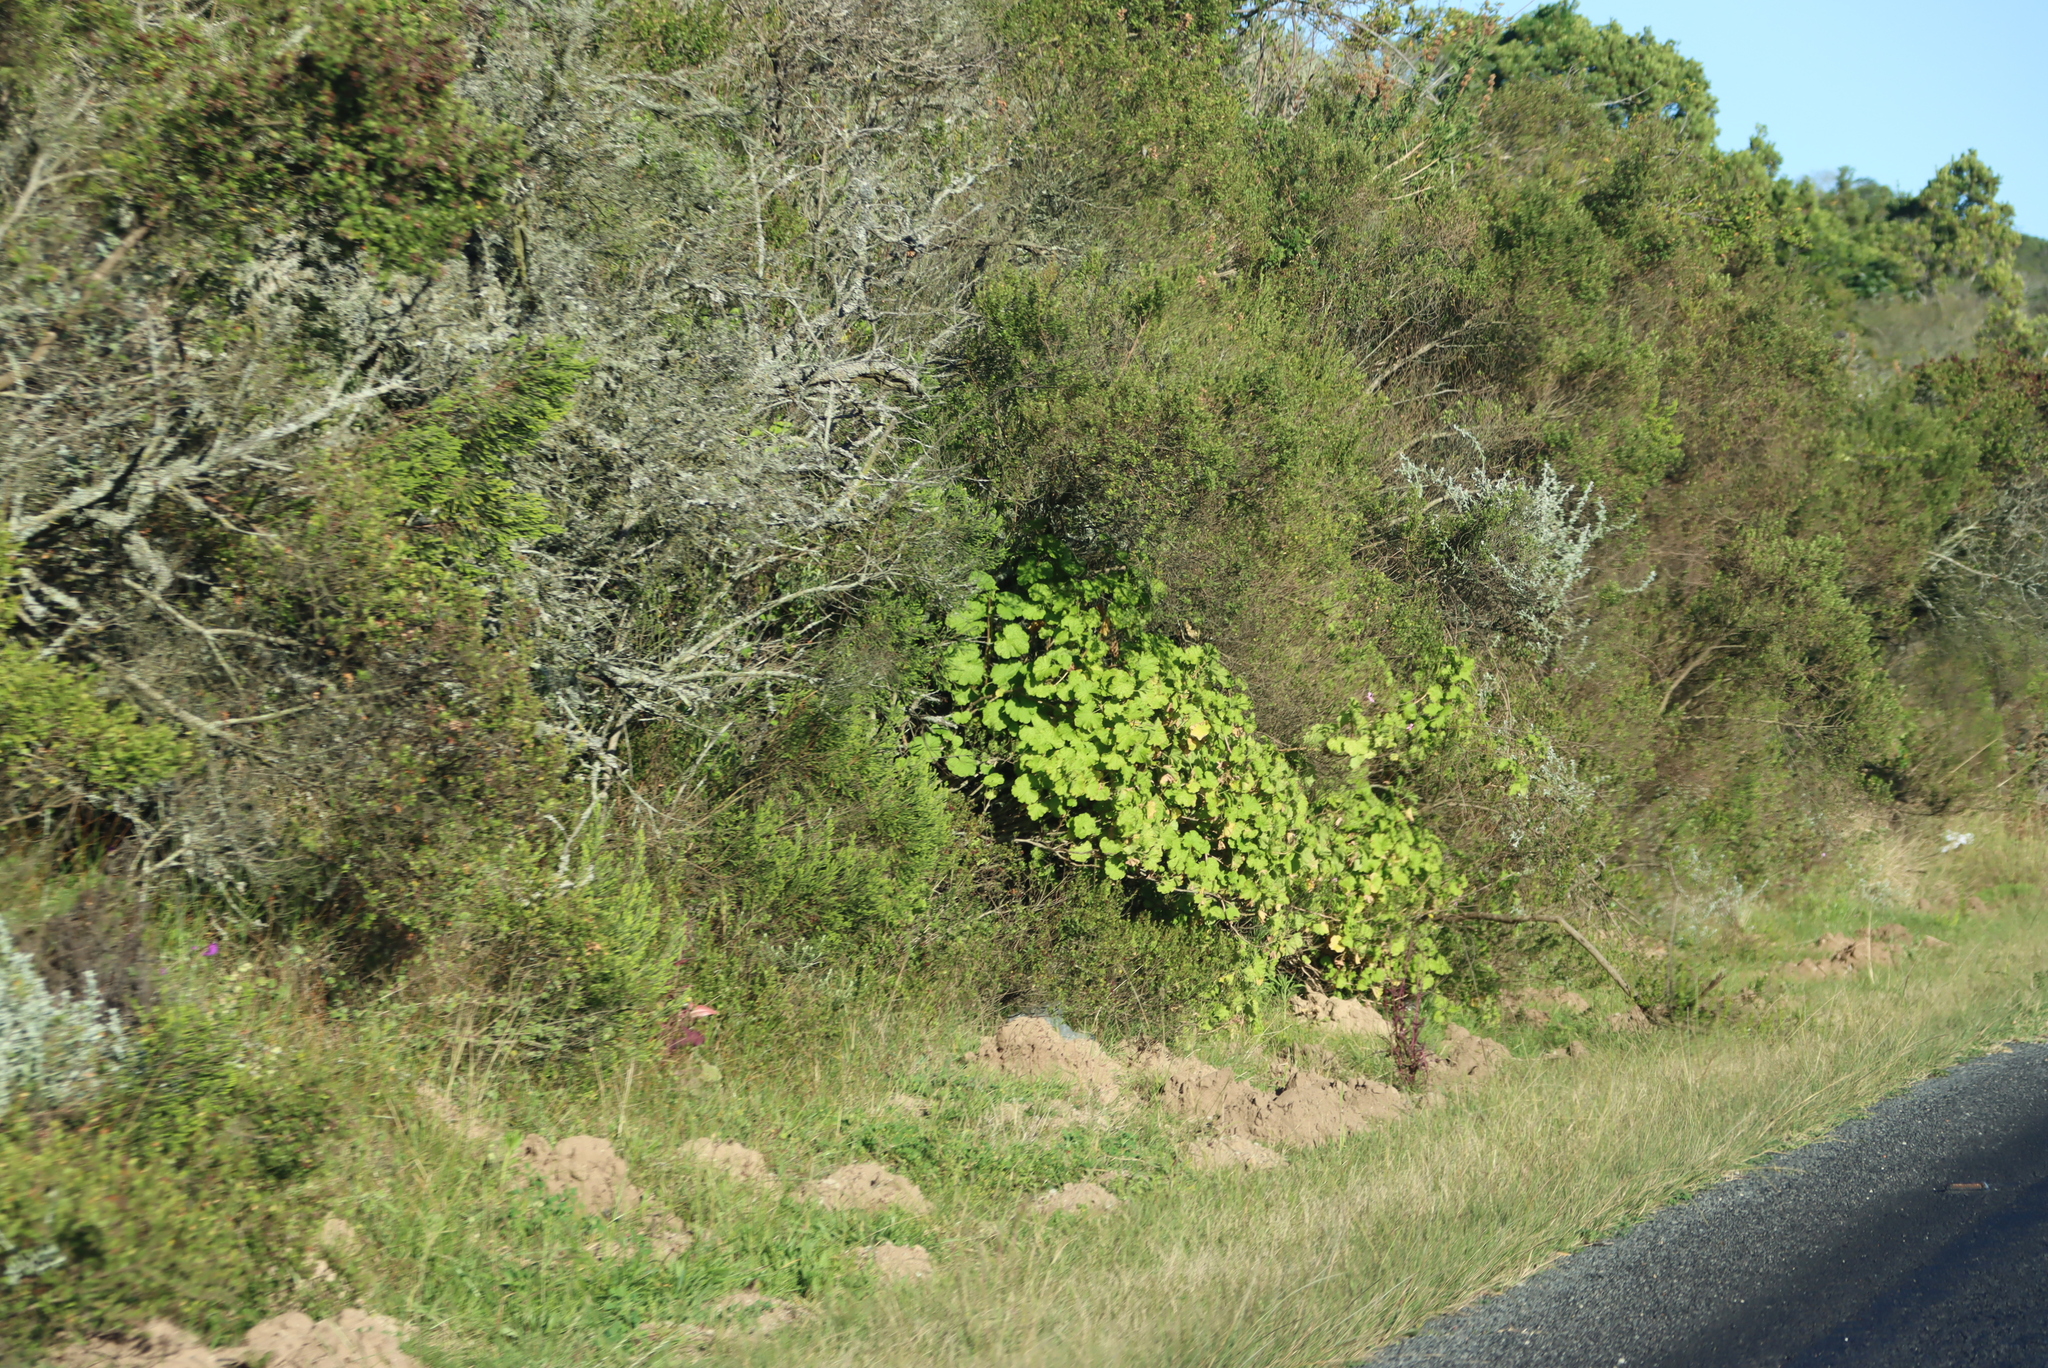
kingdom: Plantae
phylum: Tracheophyta
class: Magnoliopsida
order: Geraniales
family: Geraniaceae
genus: Pelargonium
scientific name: Pelargonium zonale
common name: Horseshoe geranium
